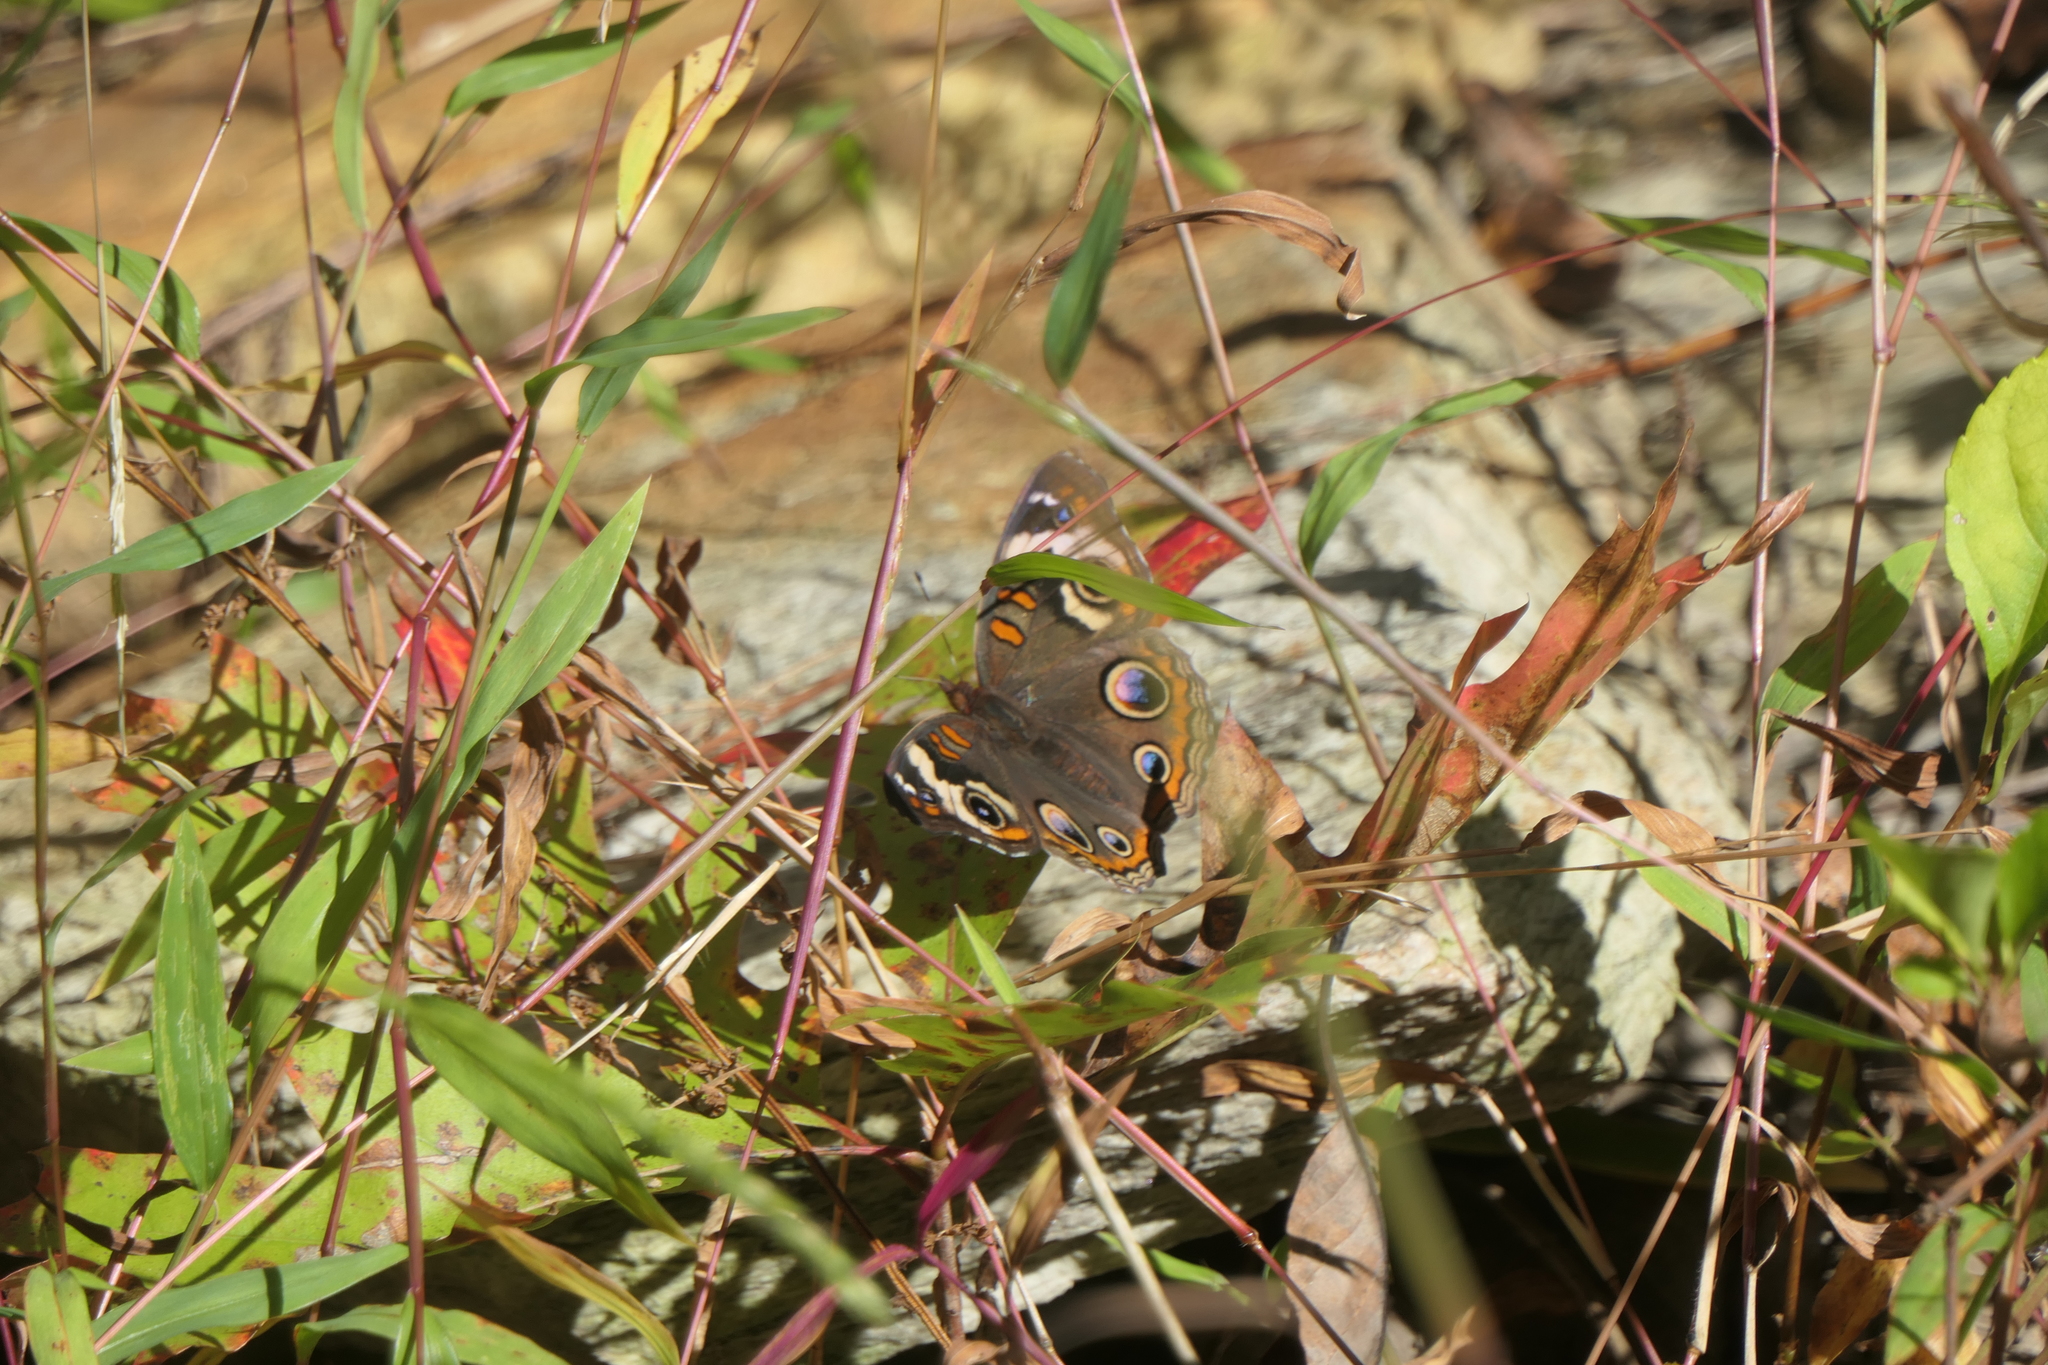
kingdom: Animalia
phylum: Arthropoda
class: Insecta
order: Lepidoptera
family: Nymphalidae
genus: Junonia
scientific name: Junonia coenia
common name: Common buckeye
